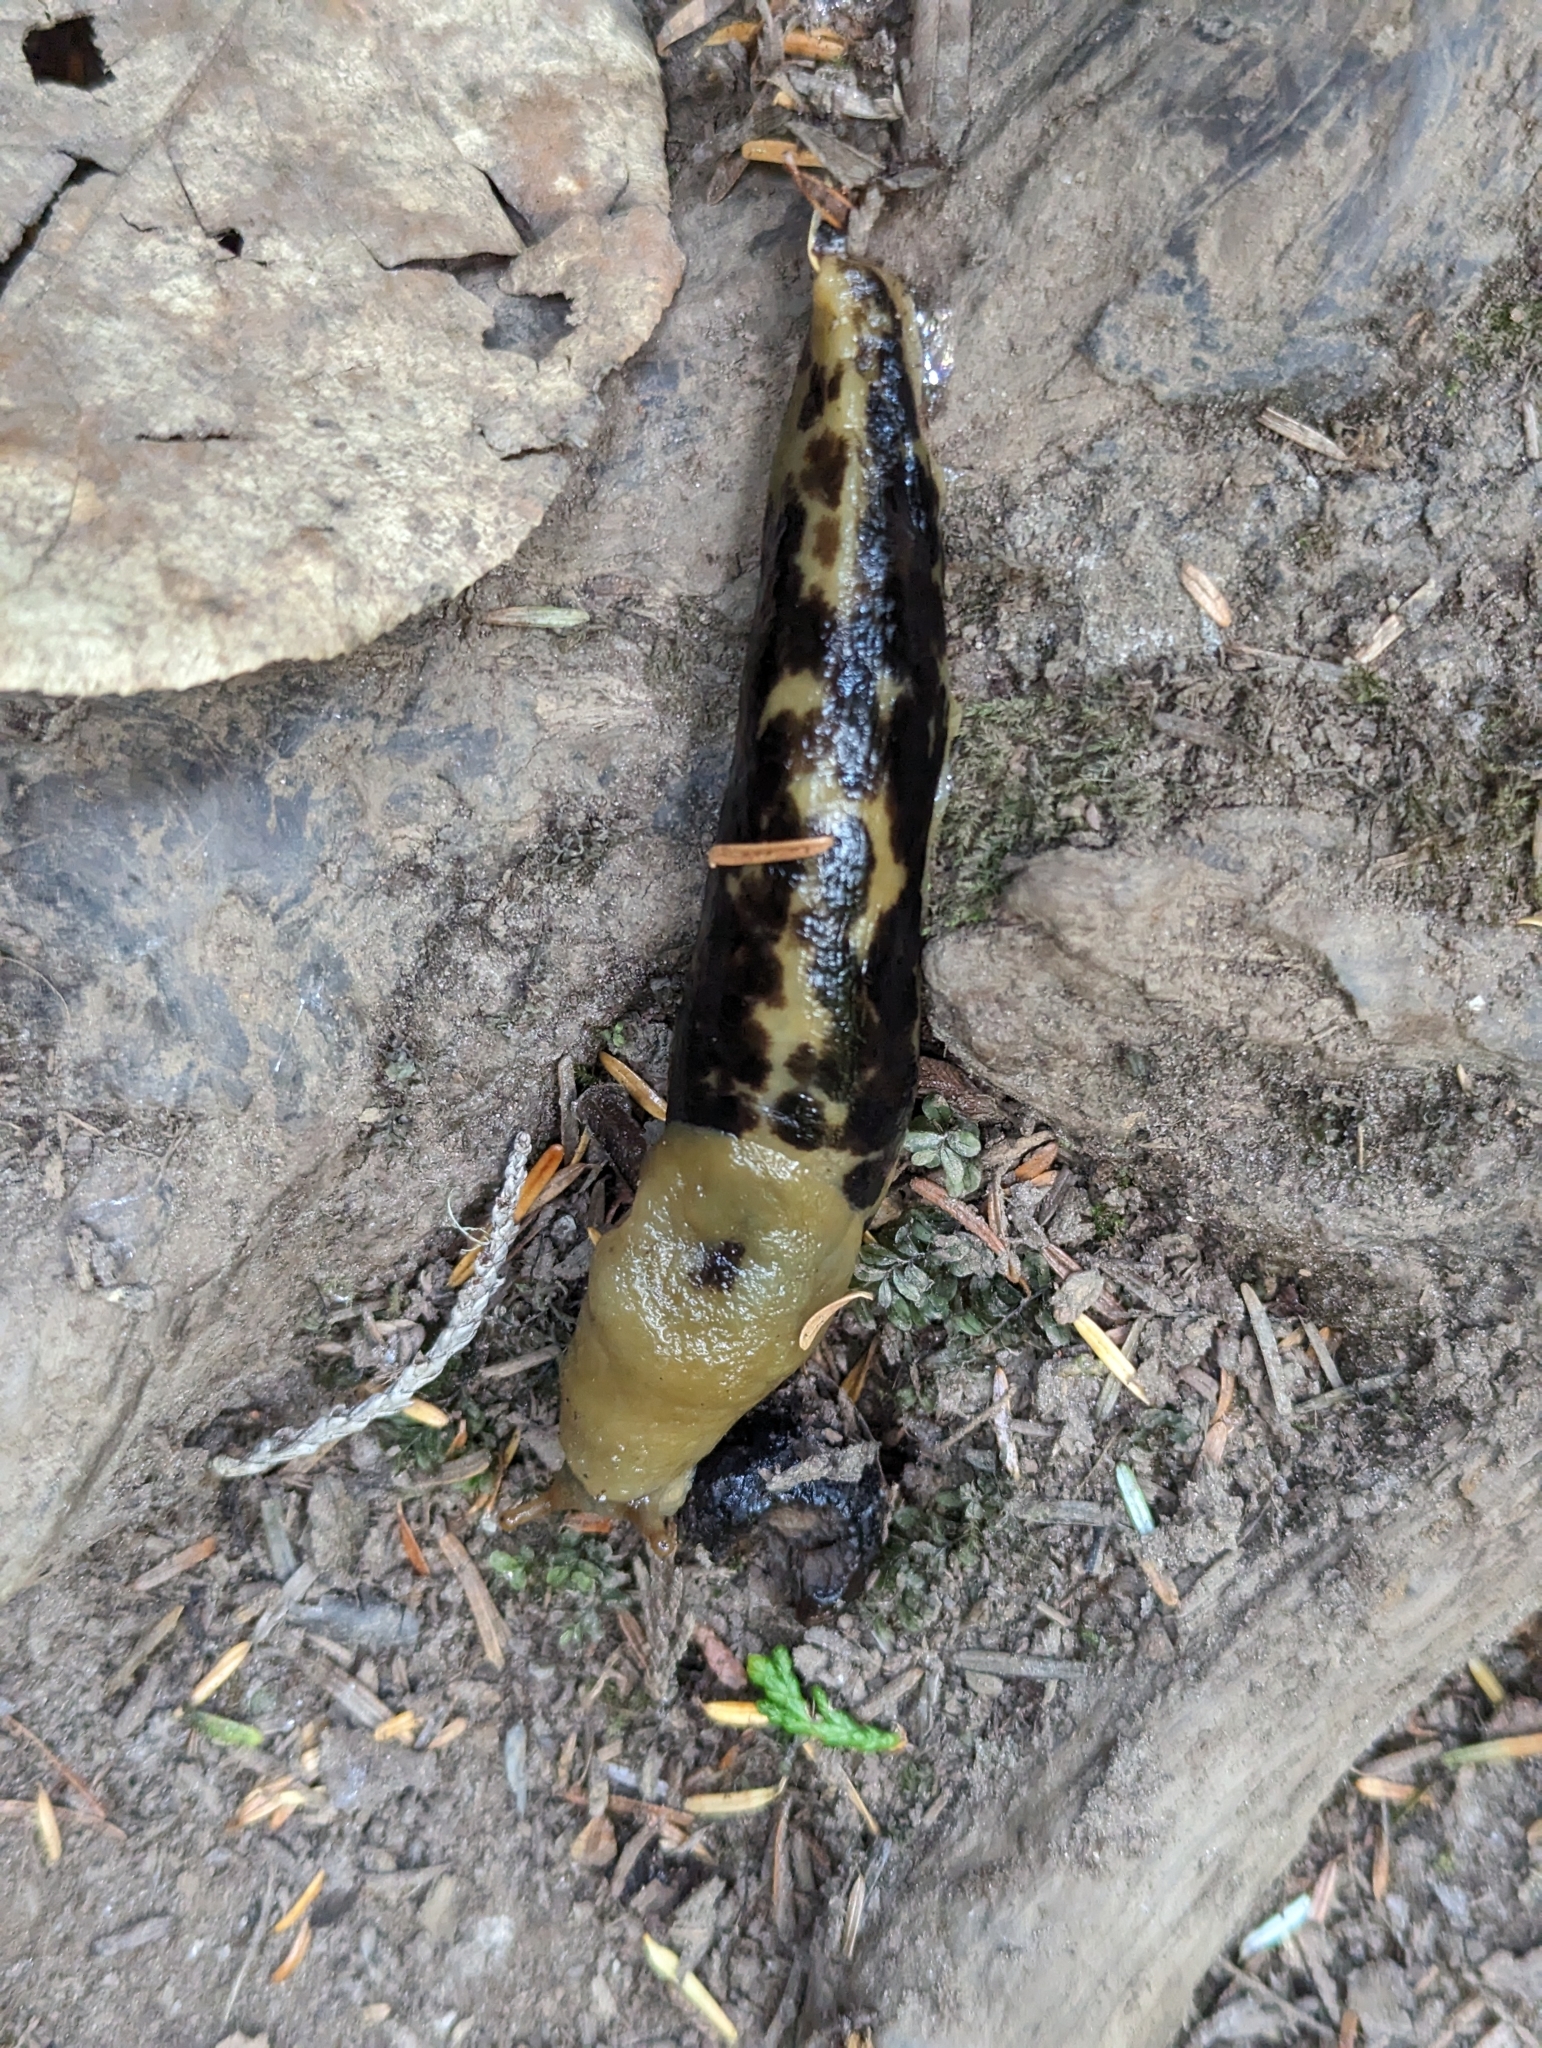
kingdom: Animalia
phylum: Mollusca
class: Gastropoda
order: Stylommatophora
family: Ariolimacidae
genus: Ariolimax
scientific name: Ariolimax columbianus
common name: Pacific banana slug
